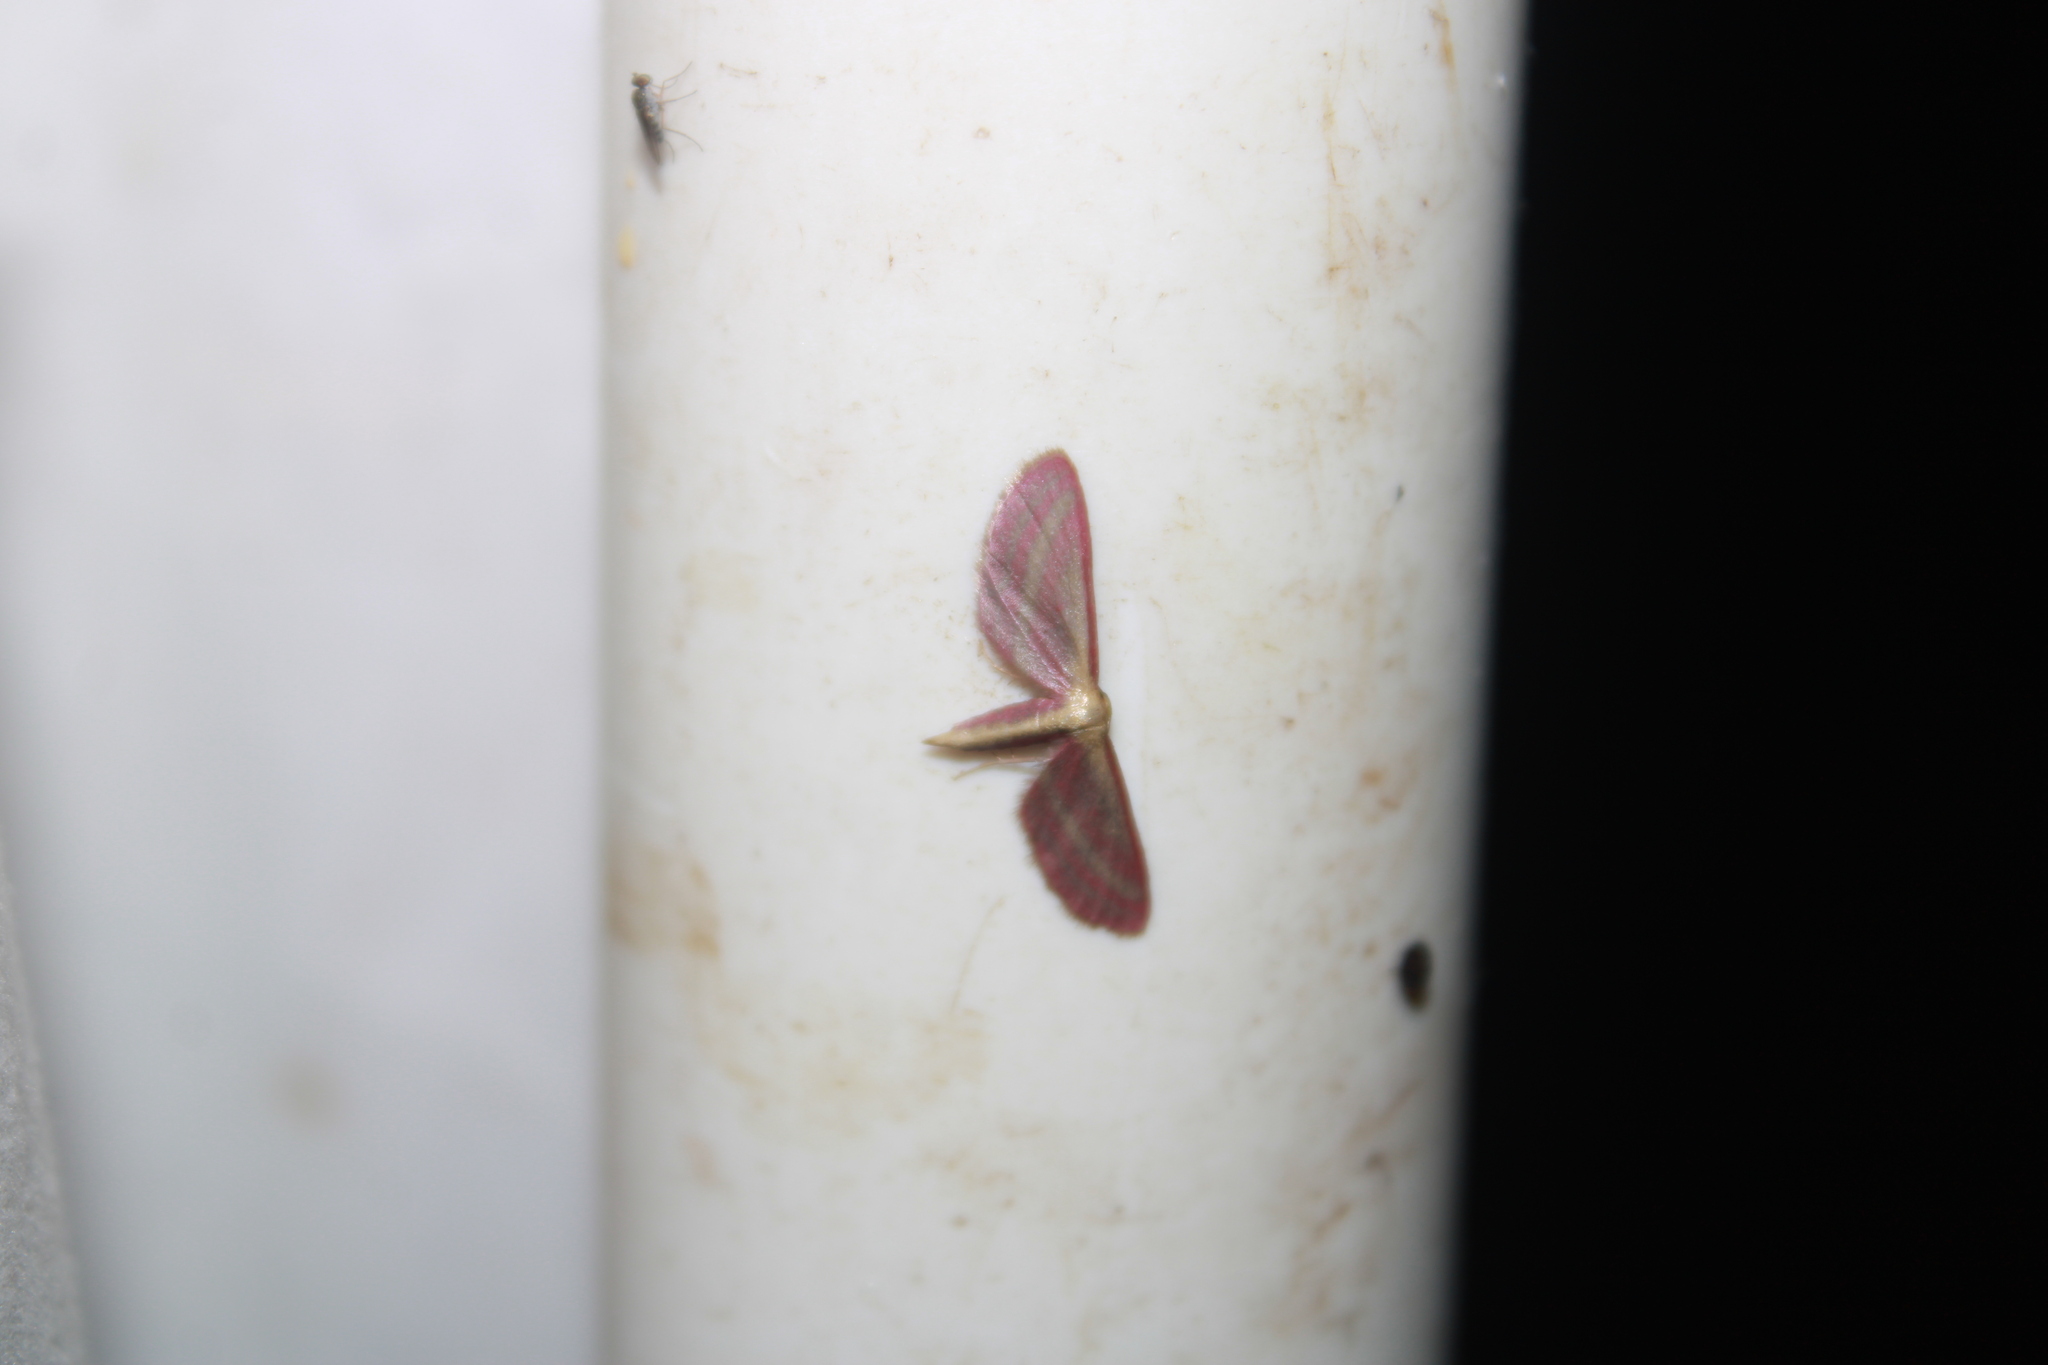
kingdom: Animalia
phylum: Arthropoda
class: Insecta
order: Lepidoptera
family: Geometridae
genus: Leptostales
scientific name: Leptostales laevitaria
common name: Raspberry wave moth
